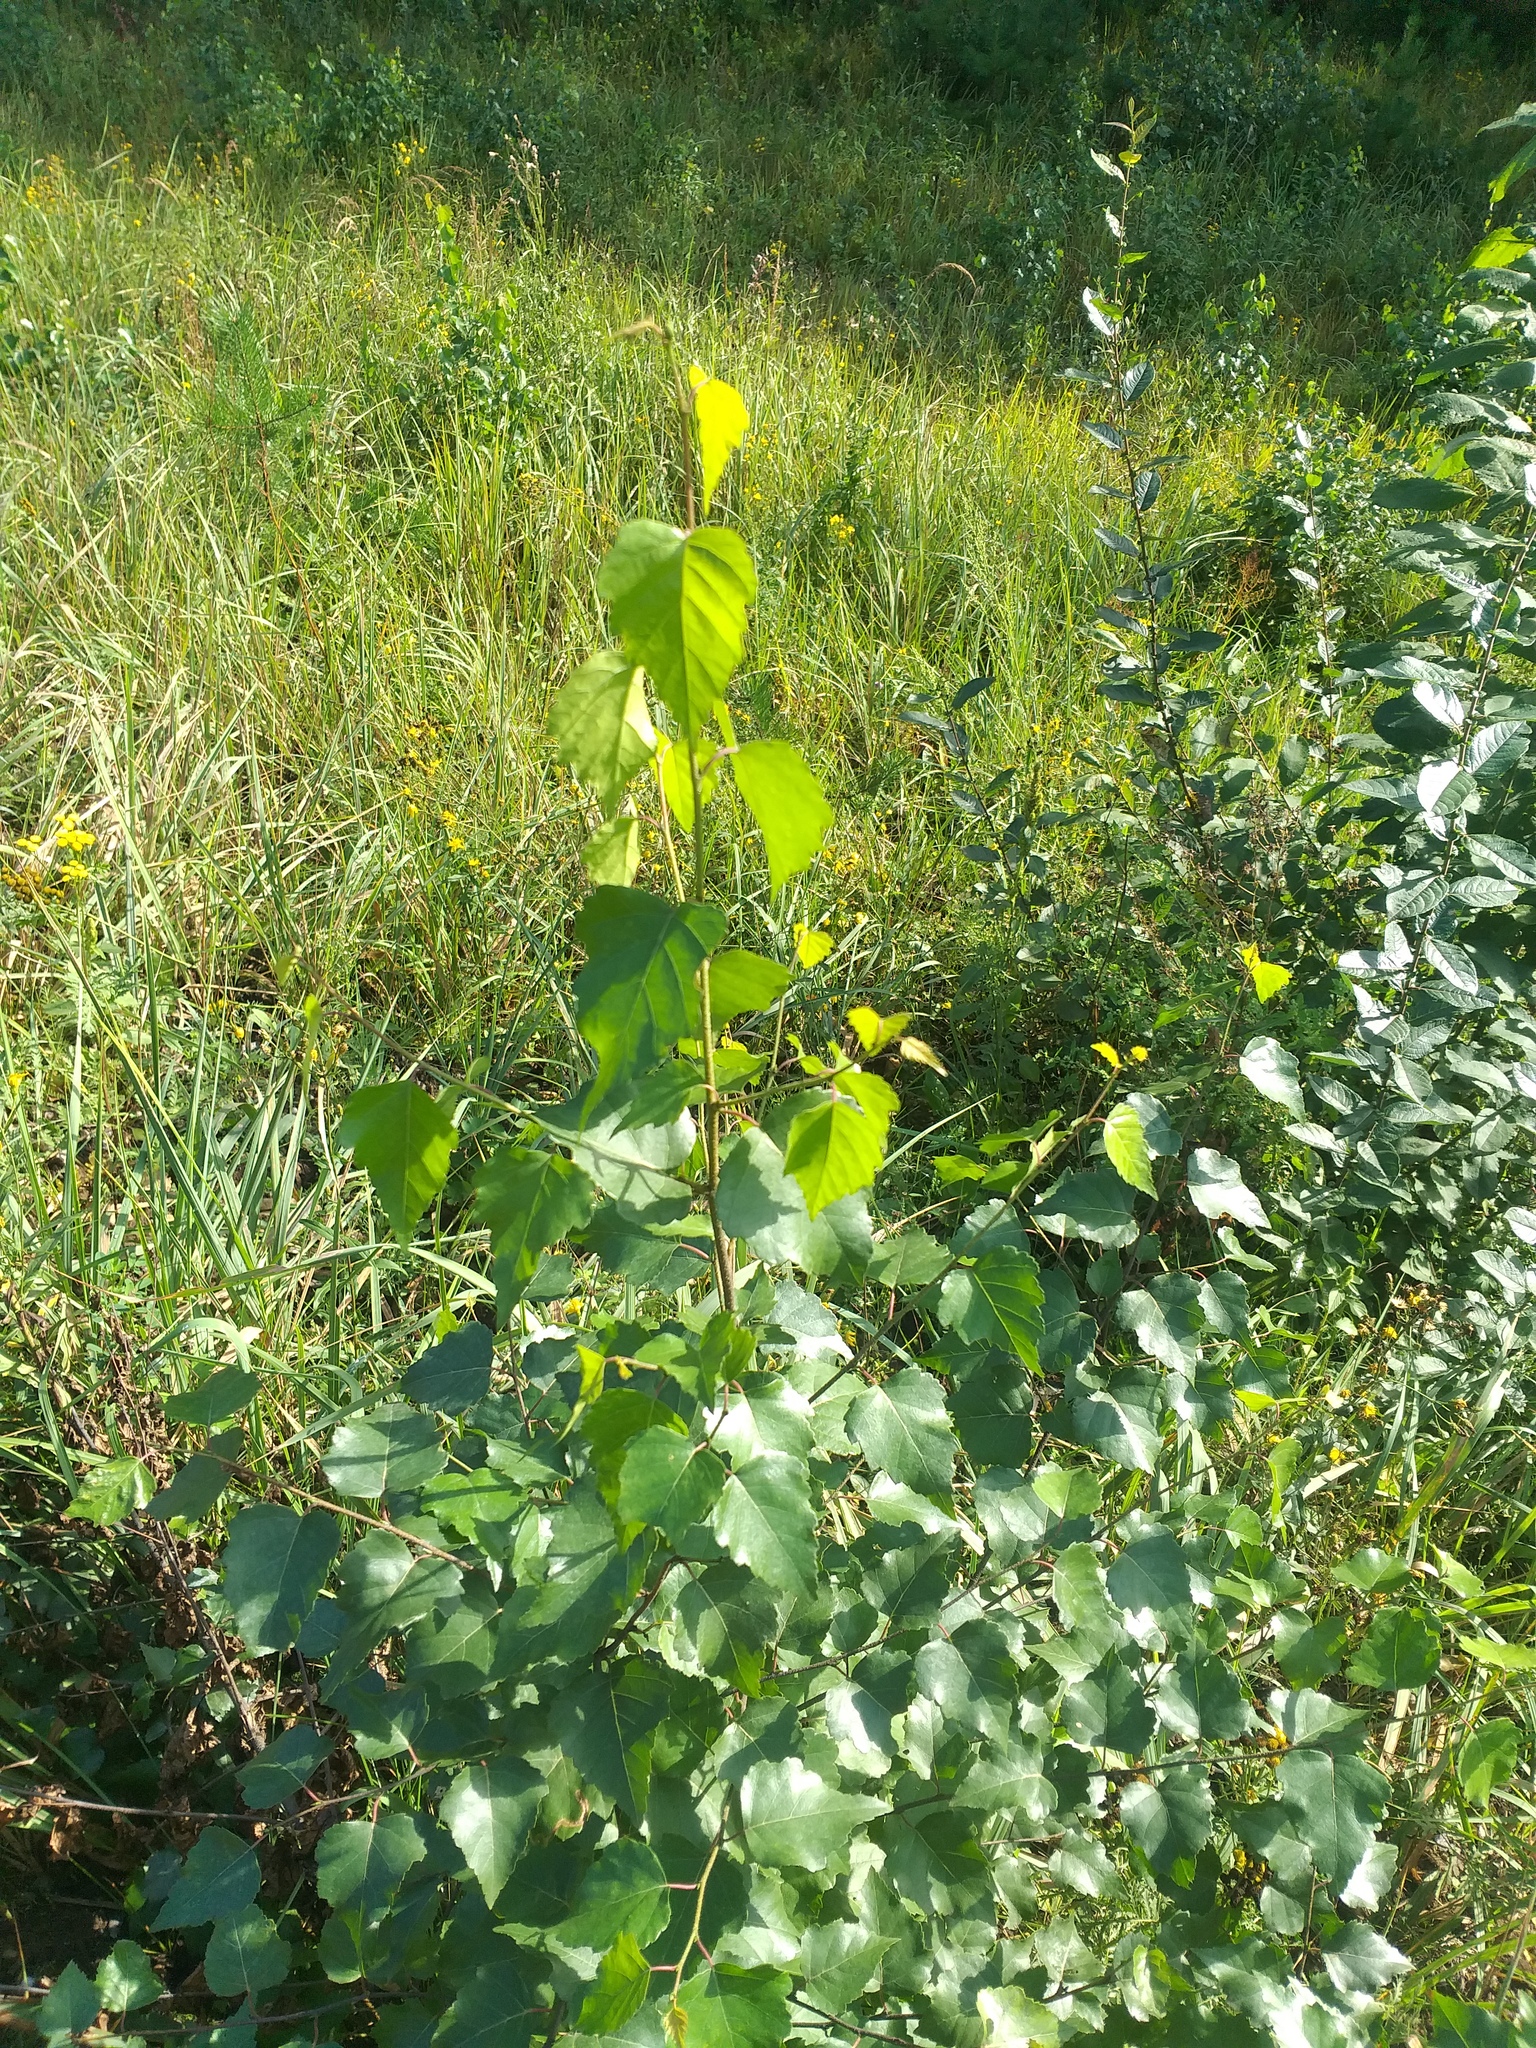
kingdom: Plantae
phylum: Tracheophyta
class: Magnoliopsida
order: Fagales
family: Betulaceae
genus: Betula
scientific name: Betula pendula
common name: Silver birch
